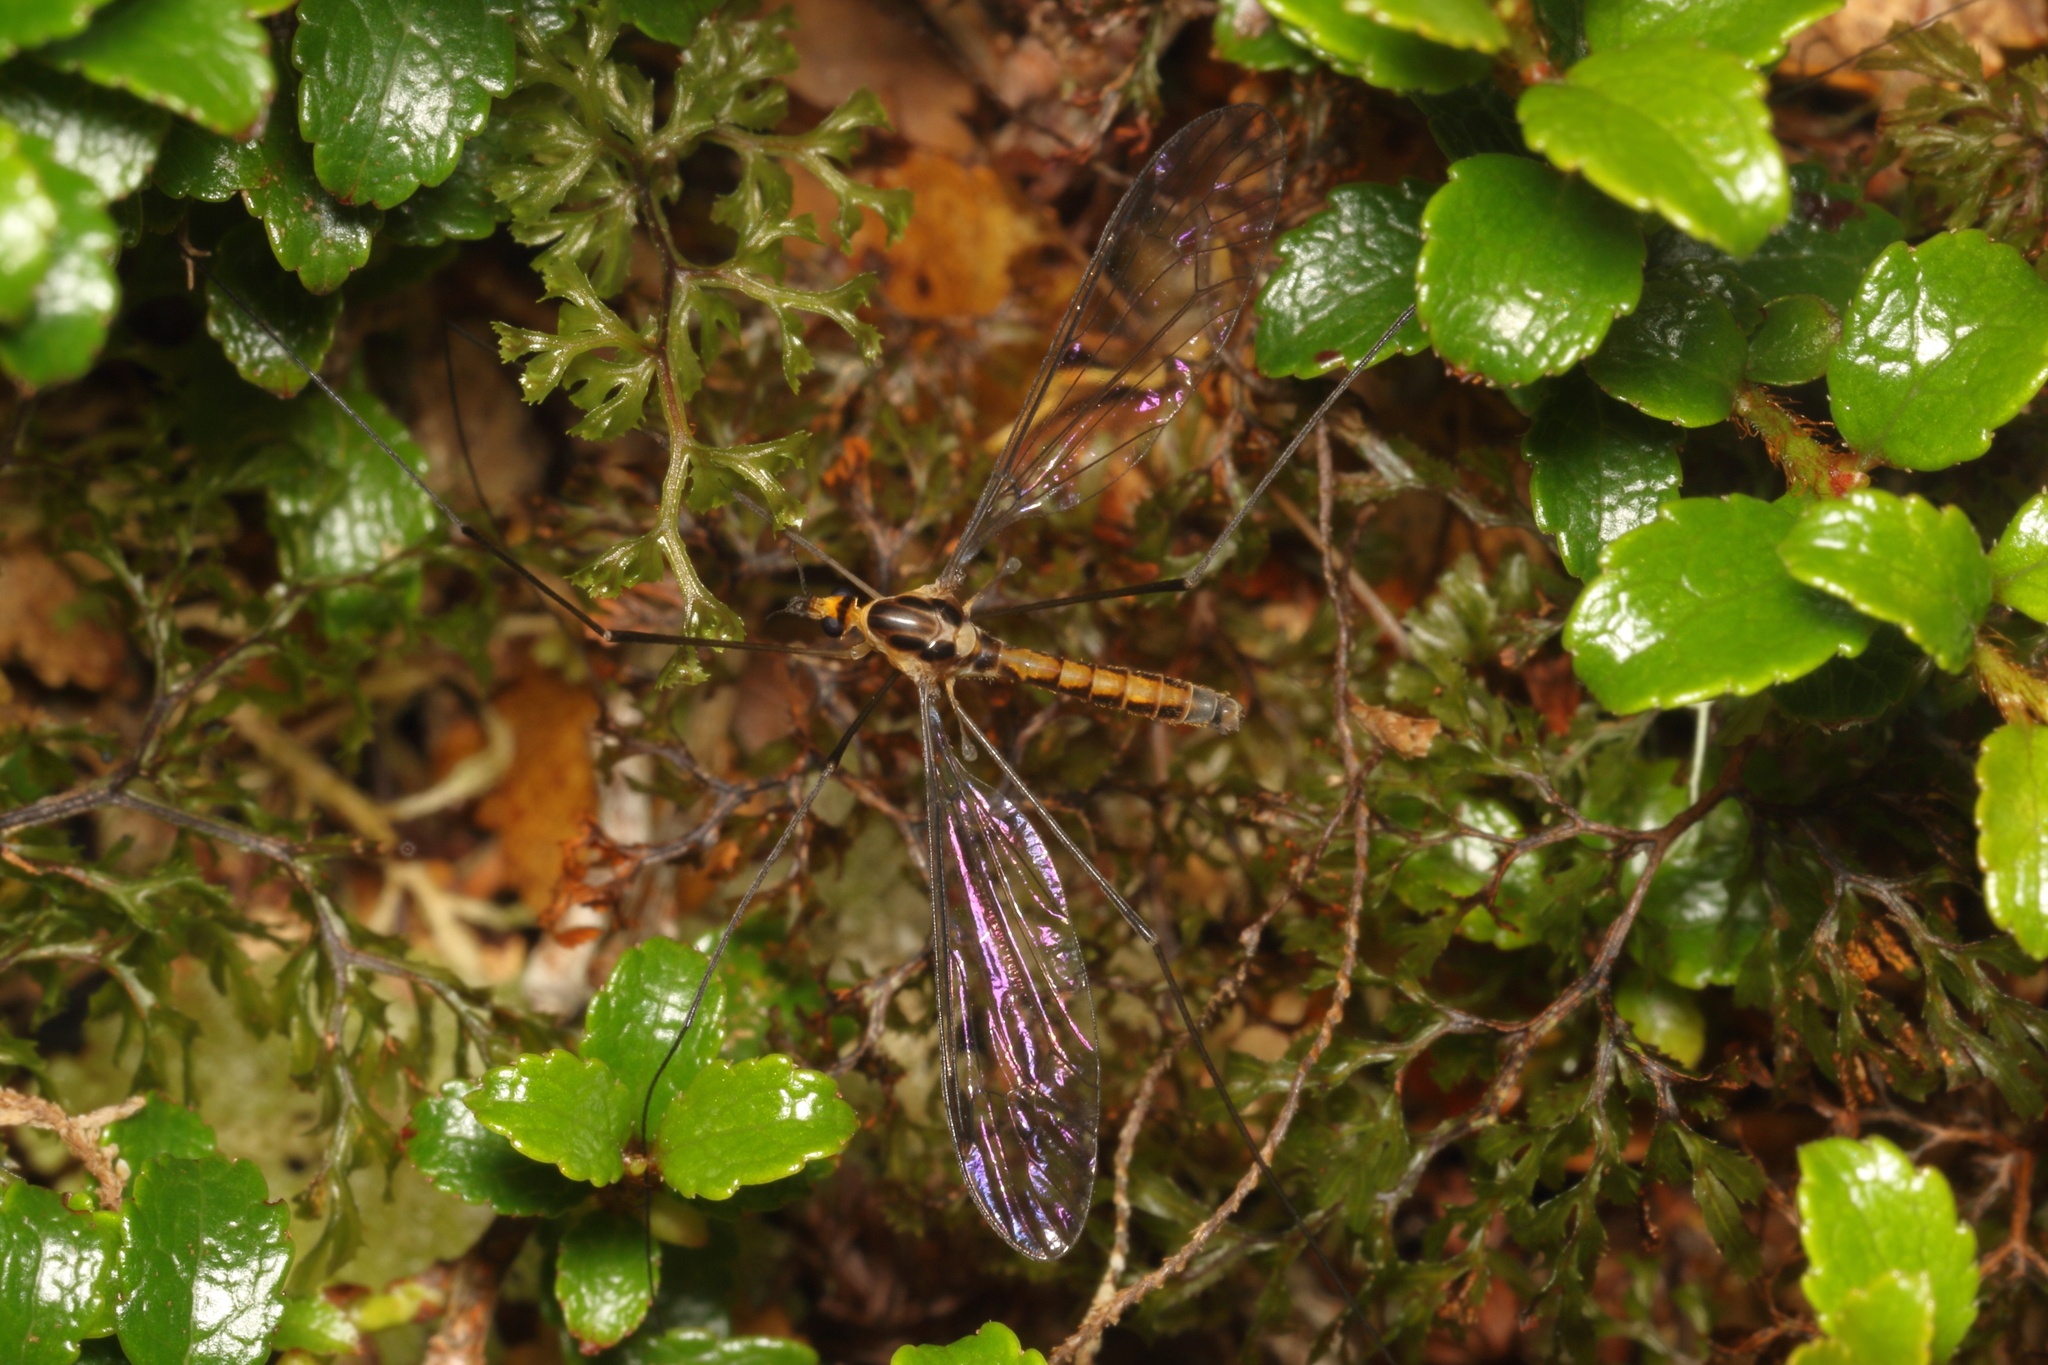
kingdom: Animalia
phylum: Arthropoda
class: Insecta
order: Diptera
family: Tipulidae
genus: Leptotarsus
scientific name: Leptotarsus subtener
